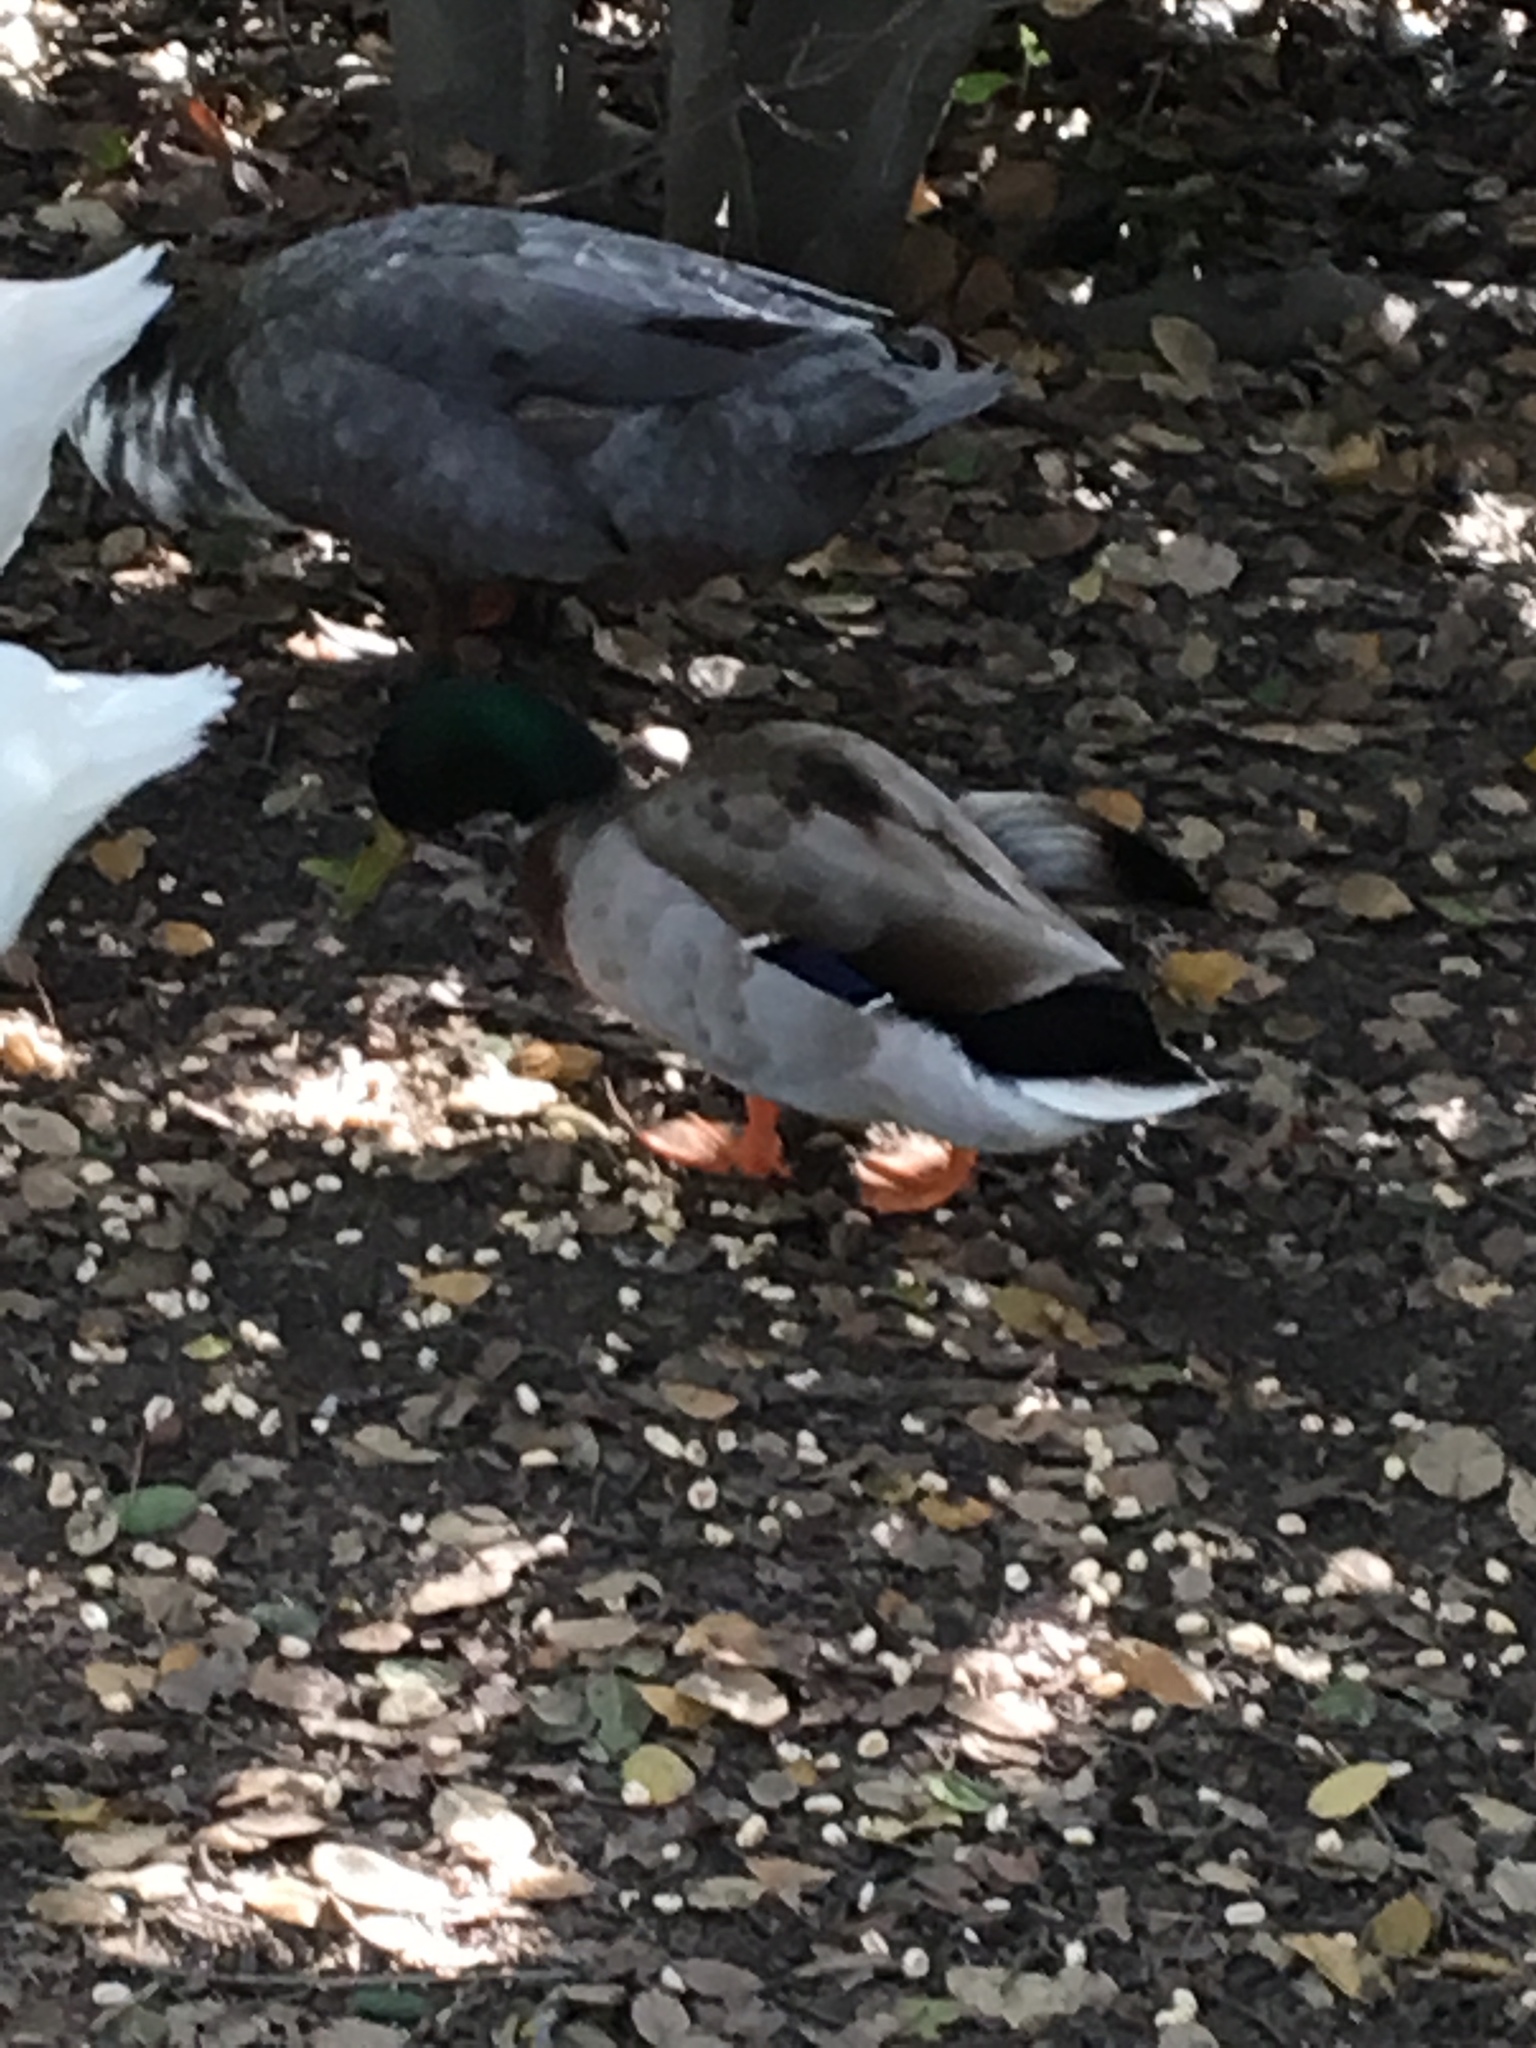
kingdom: Animalia
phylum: Chordata
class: Aves
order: Anseriformes
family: Anatidae
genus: Anas
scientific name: Anas platyrhynchos
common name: Mallard
